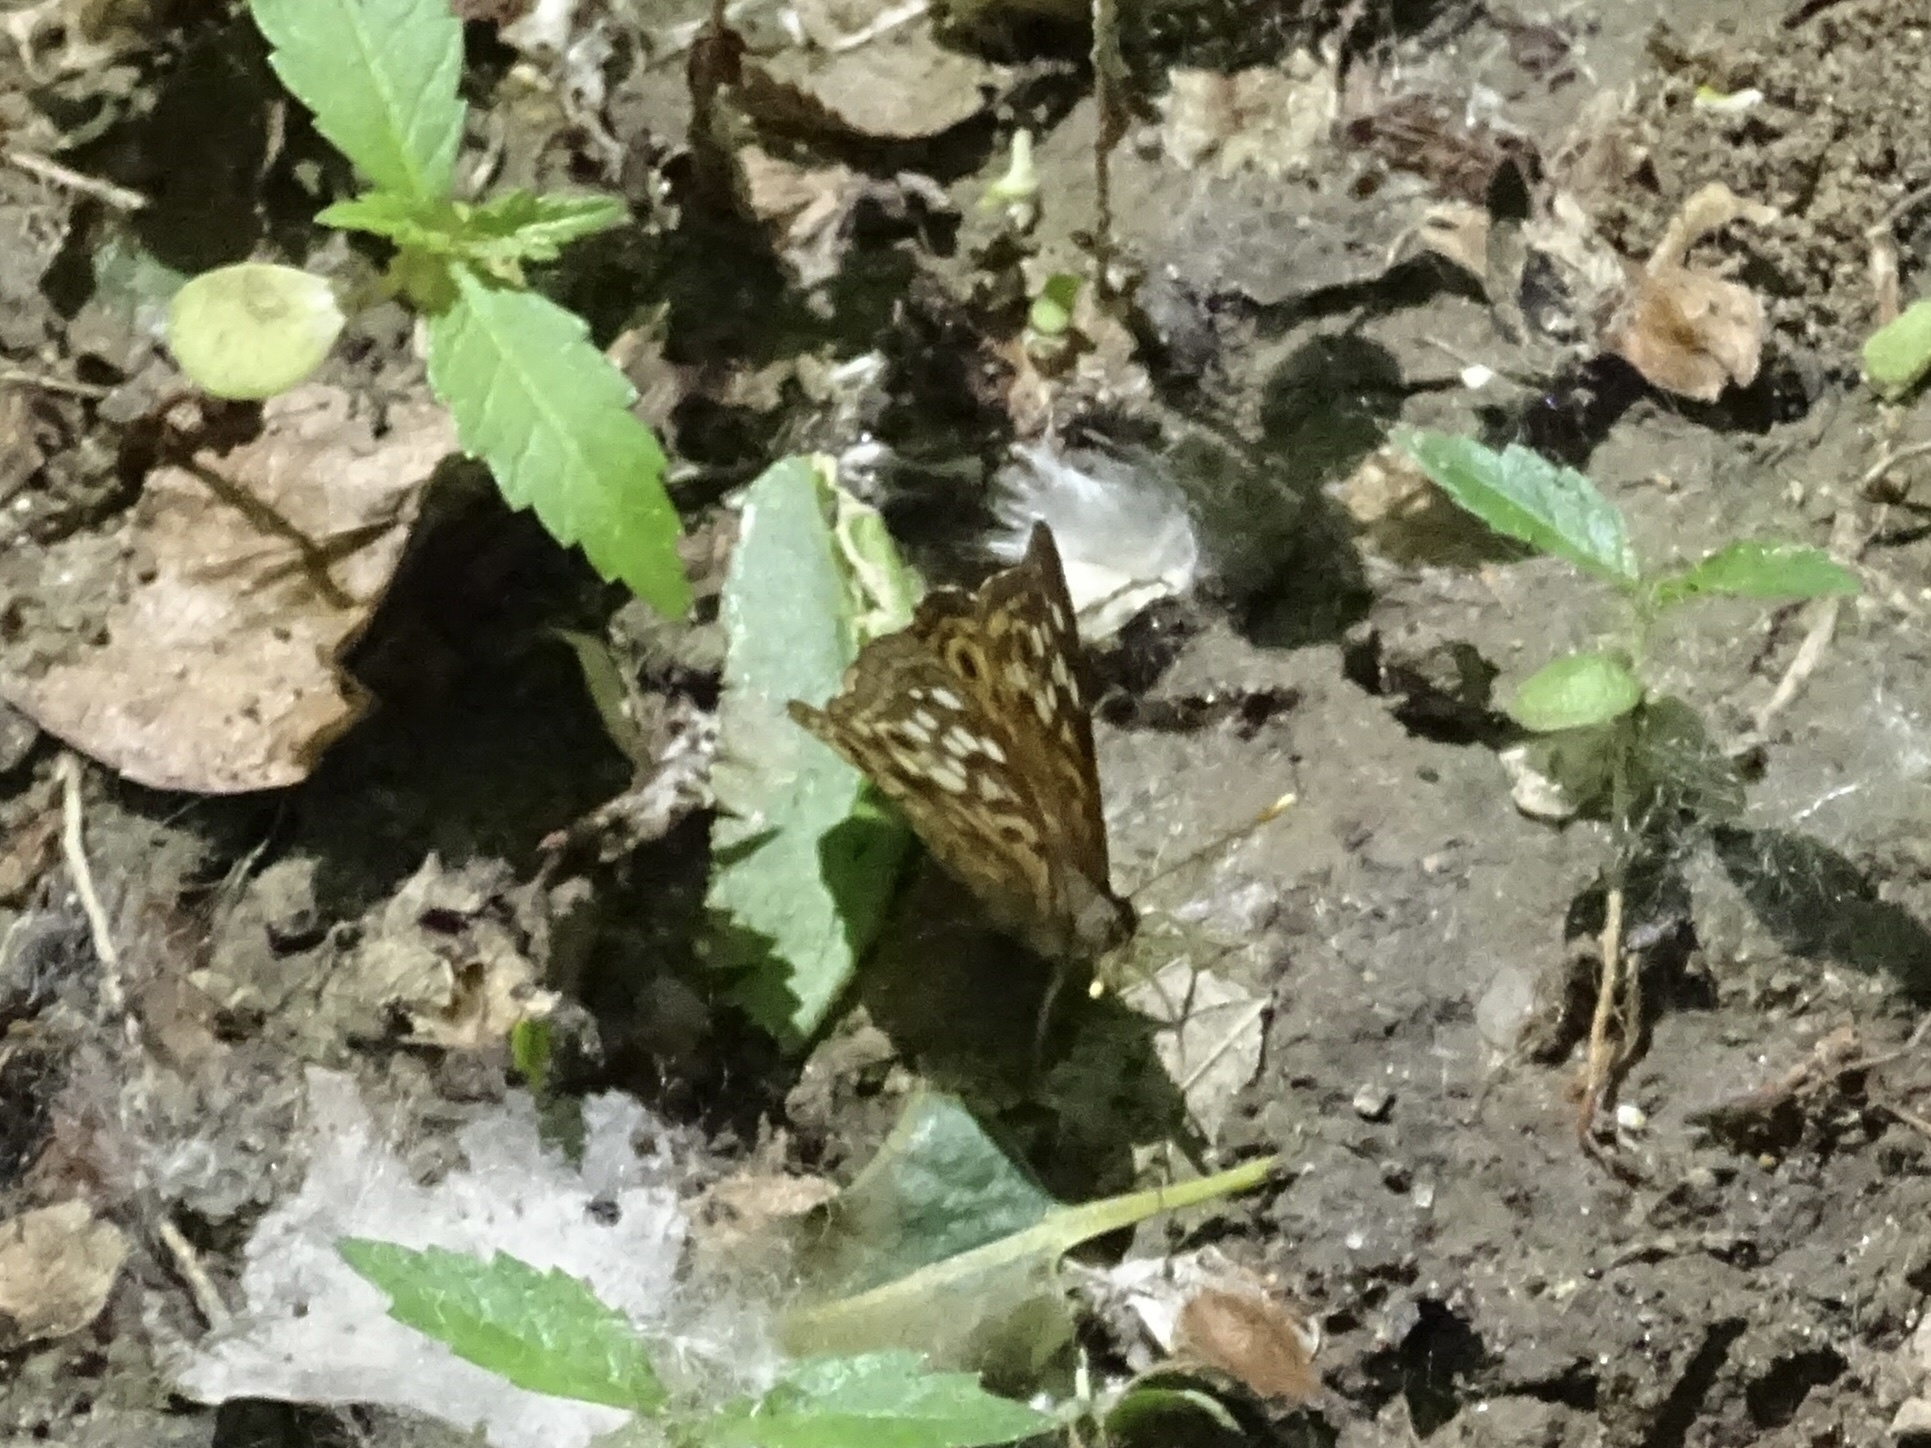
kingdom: Animalia
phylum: Arthropoda
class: Insecta
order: Lepidoptera
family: Nymphalidae
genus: Asterocampa
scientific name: Asterocampa celtis
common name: Hackberry emperor
